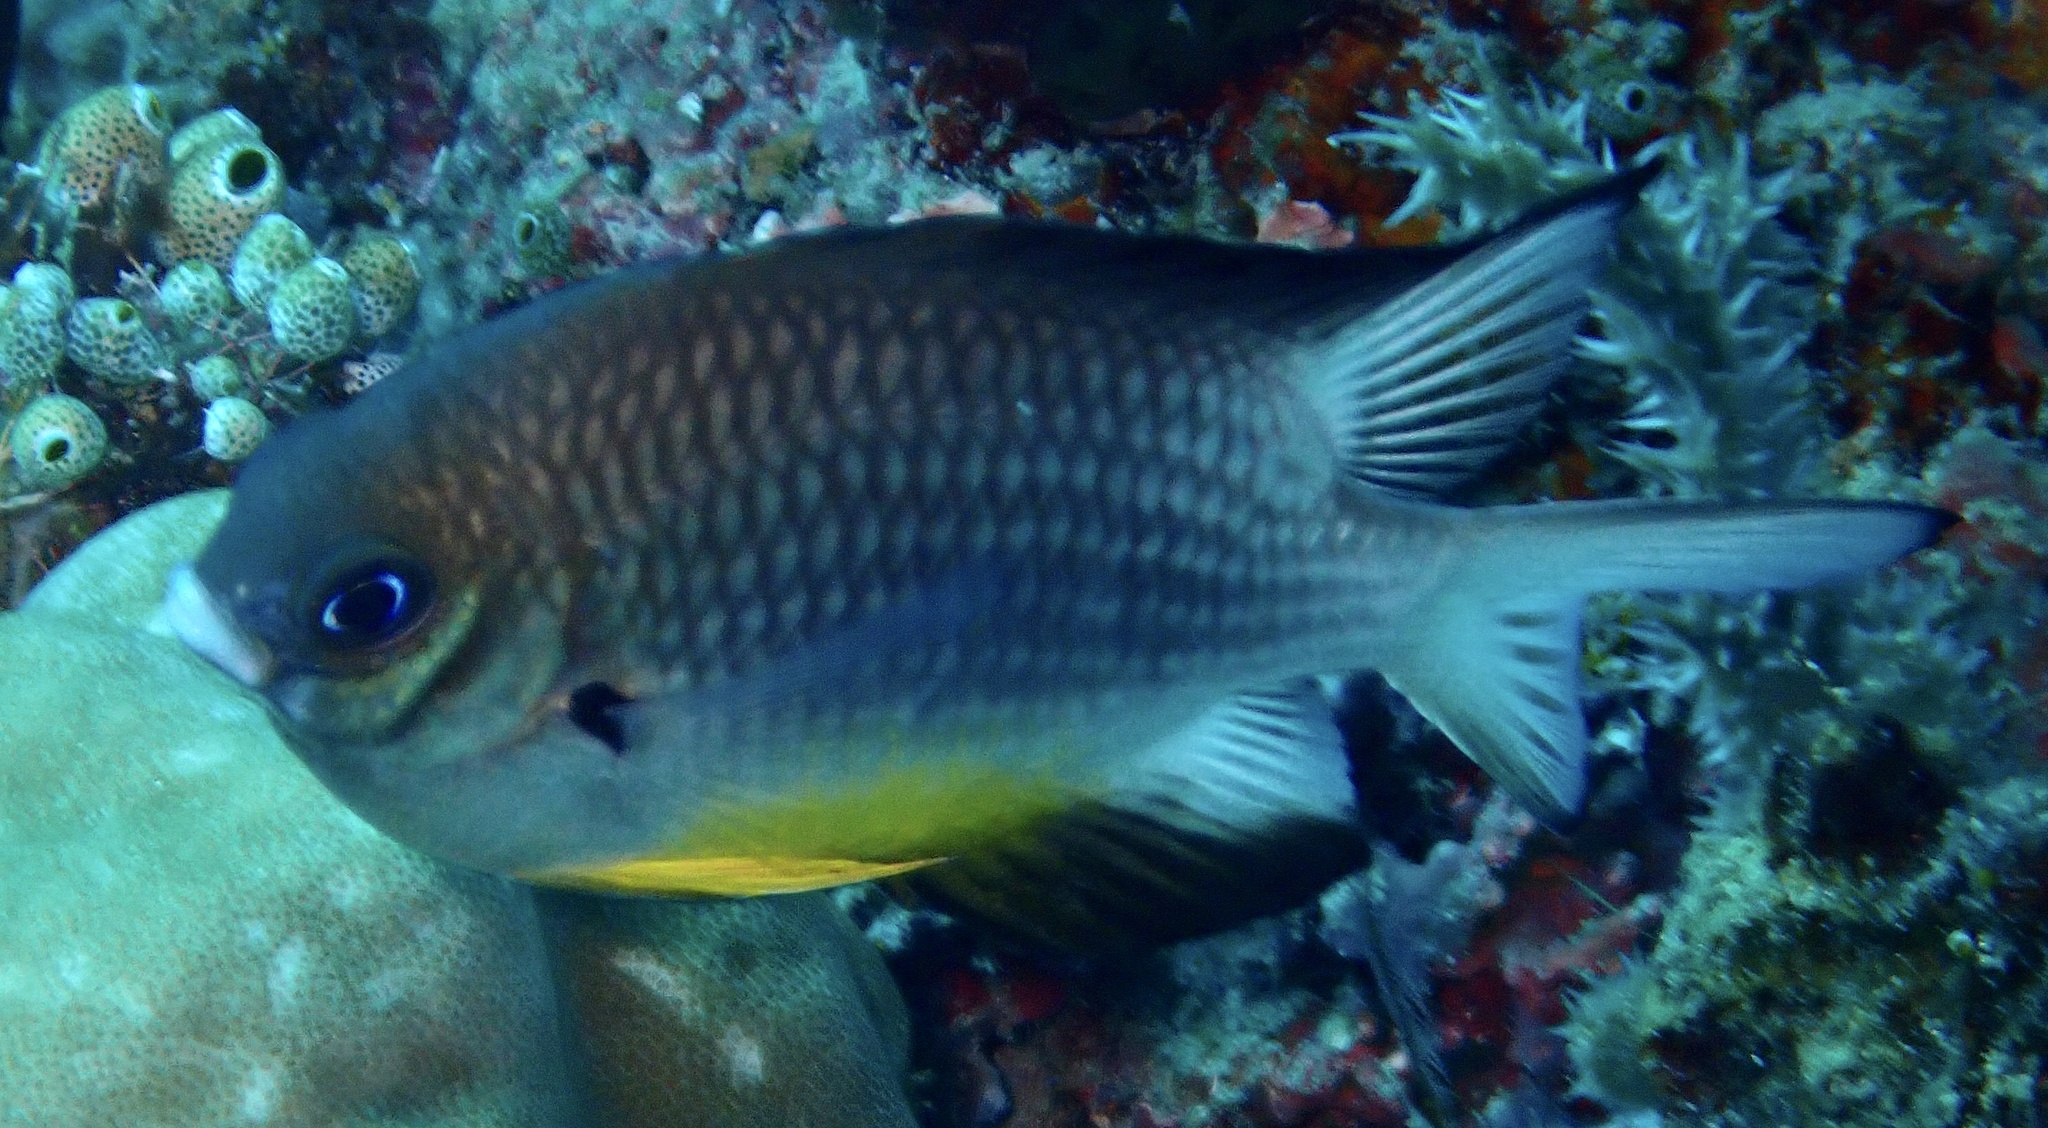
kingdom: Animalia
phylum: Chordata
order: Perciformes
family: Pomacentridae
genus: Amblyglyphidodon
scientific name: Amblyglyphidodon leucogaster
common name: White-belly damsel
